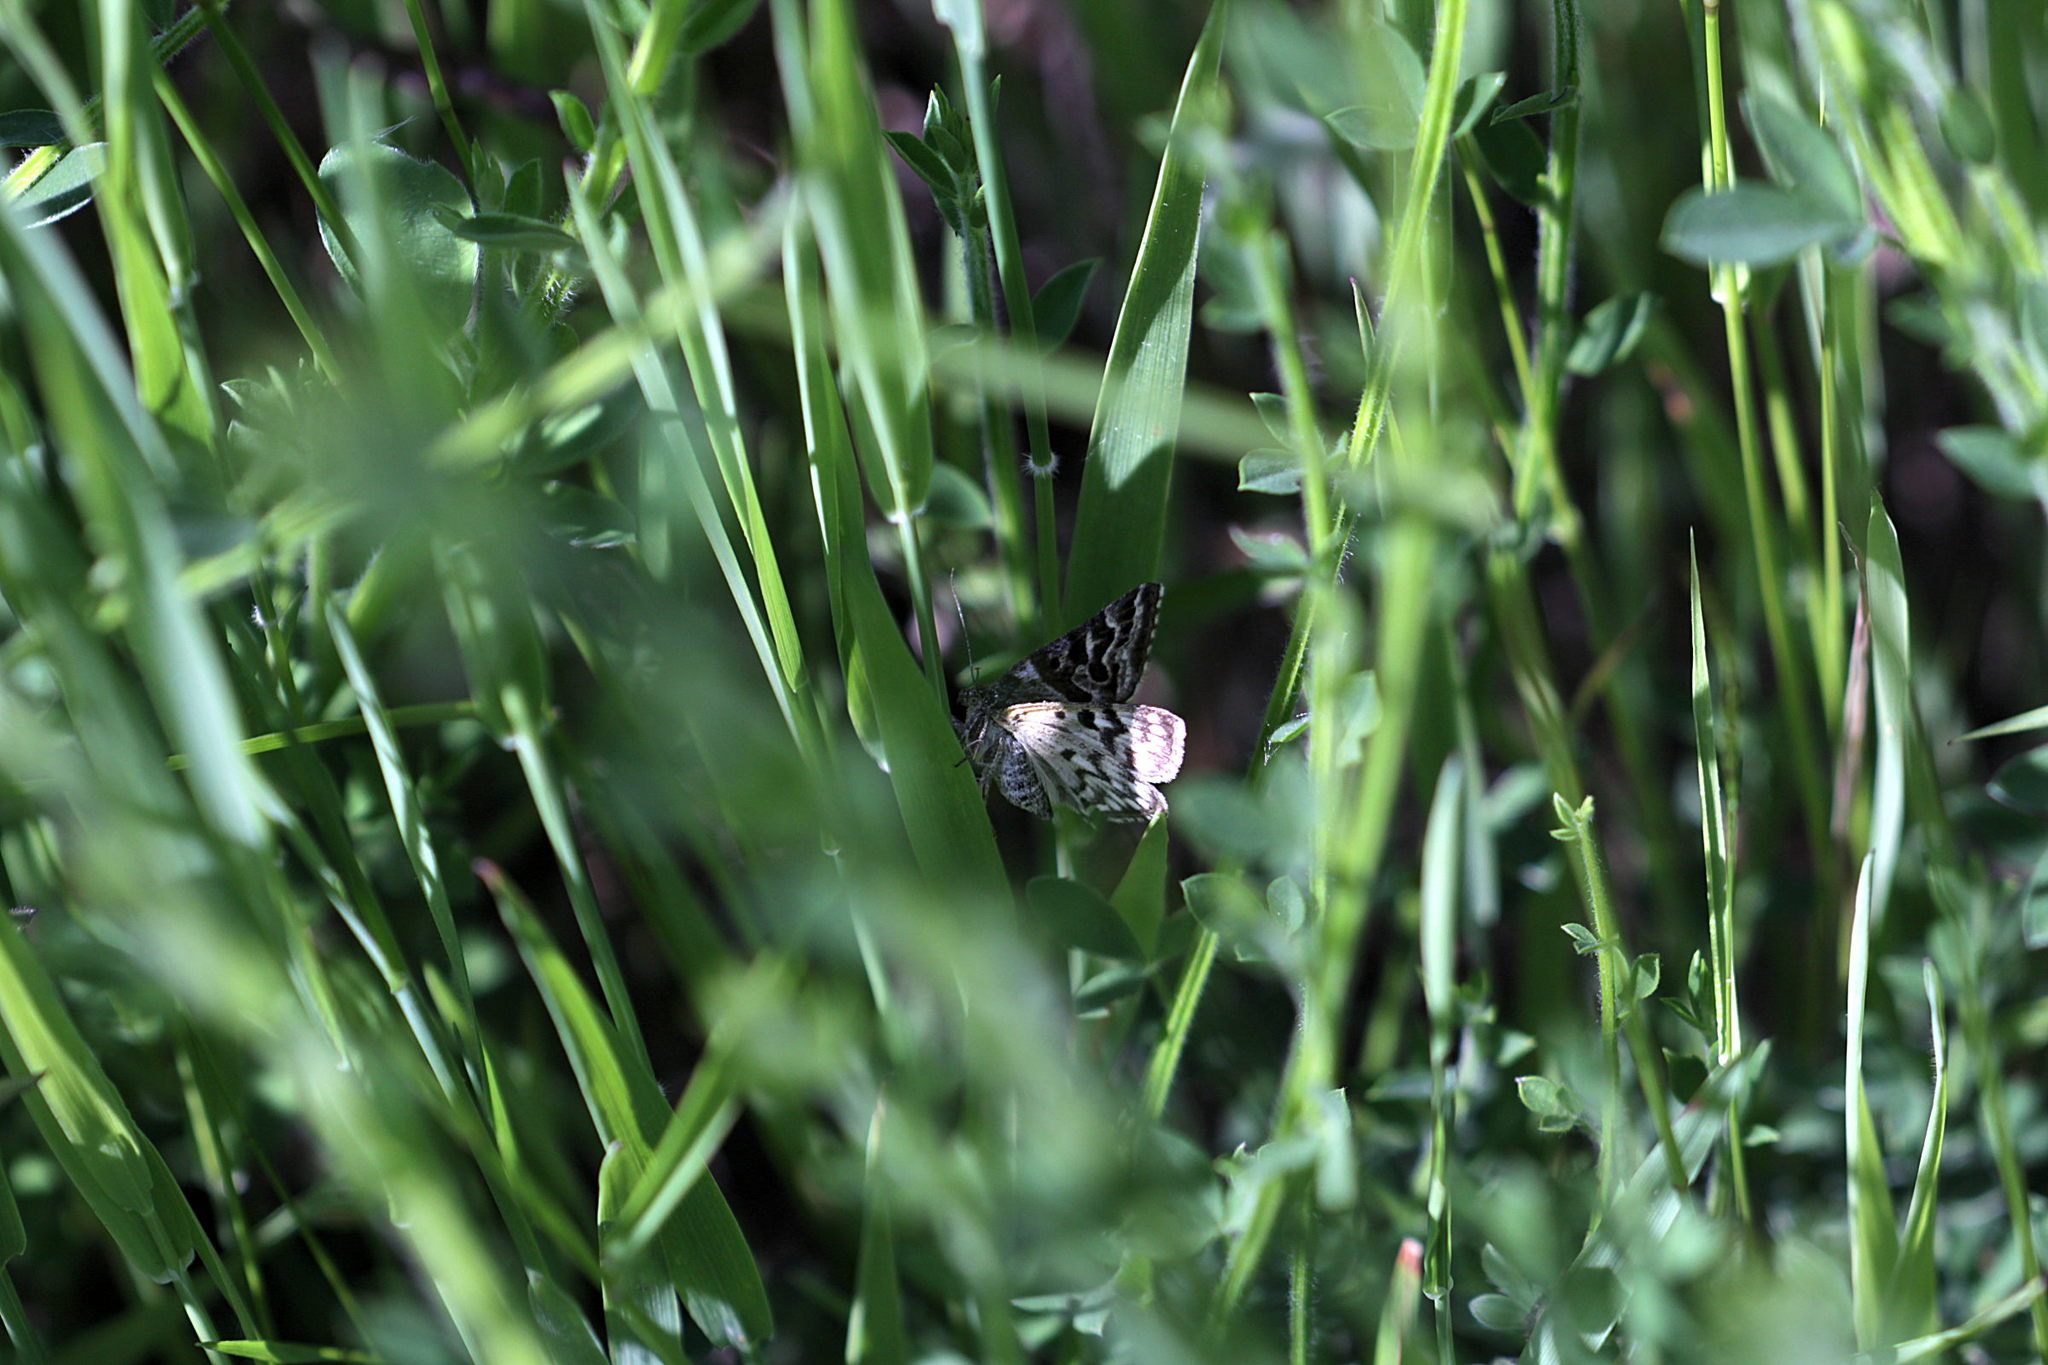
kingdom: Animalia
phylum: Arthropoda
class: Insecta
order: Lepidoptera
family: Erebidae
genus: Callistege
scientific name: Callistege mi
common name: Mother shipton
